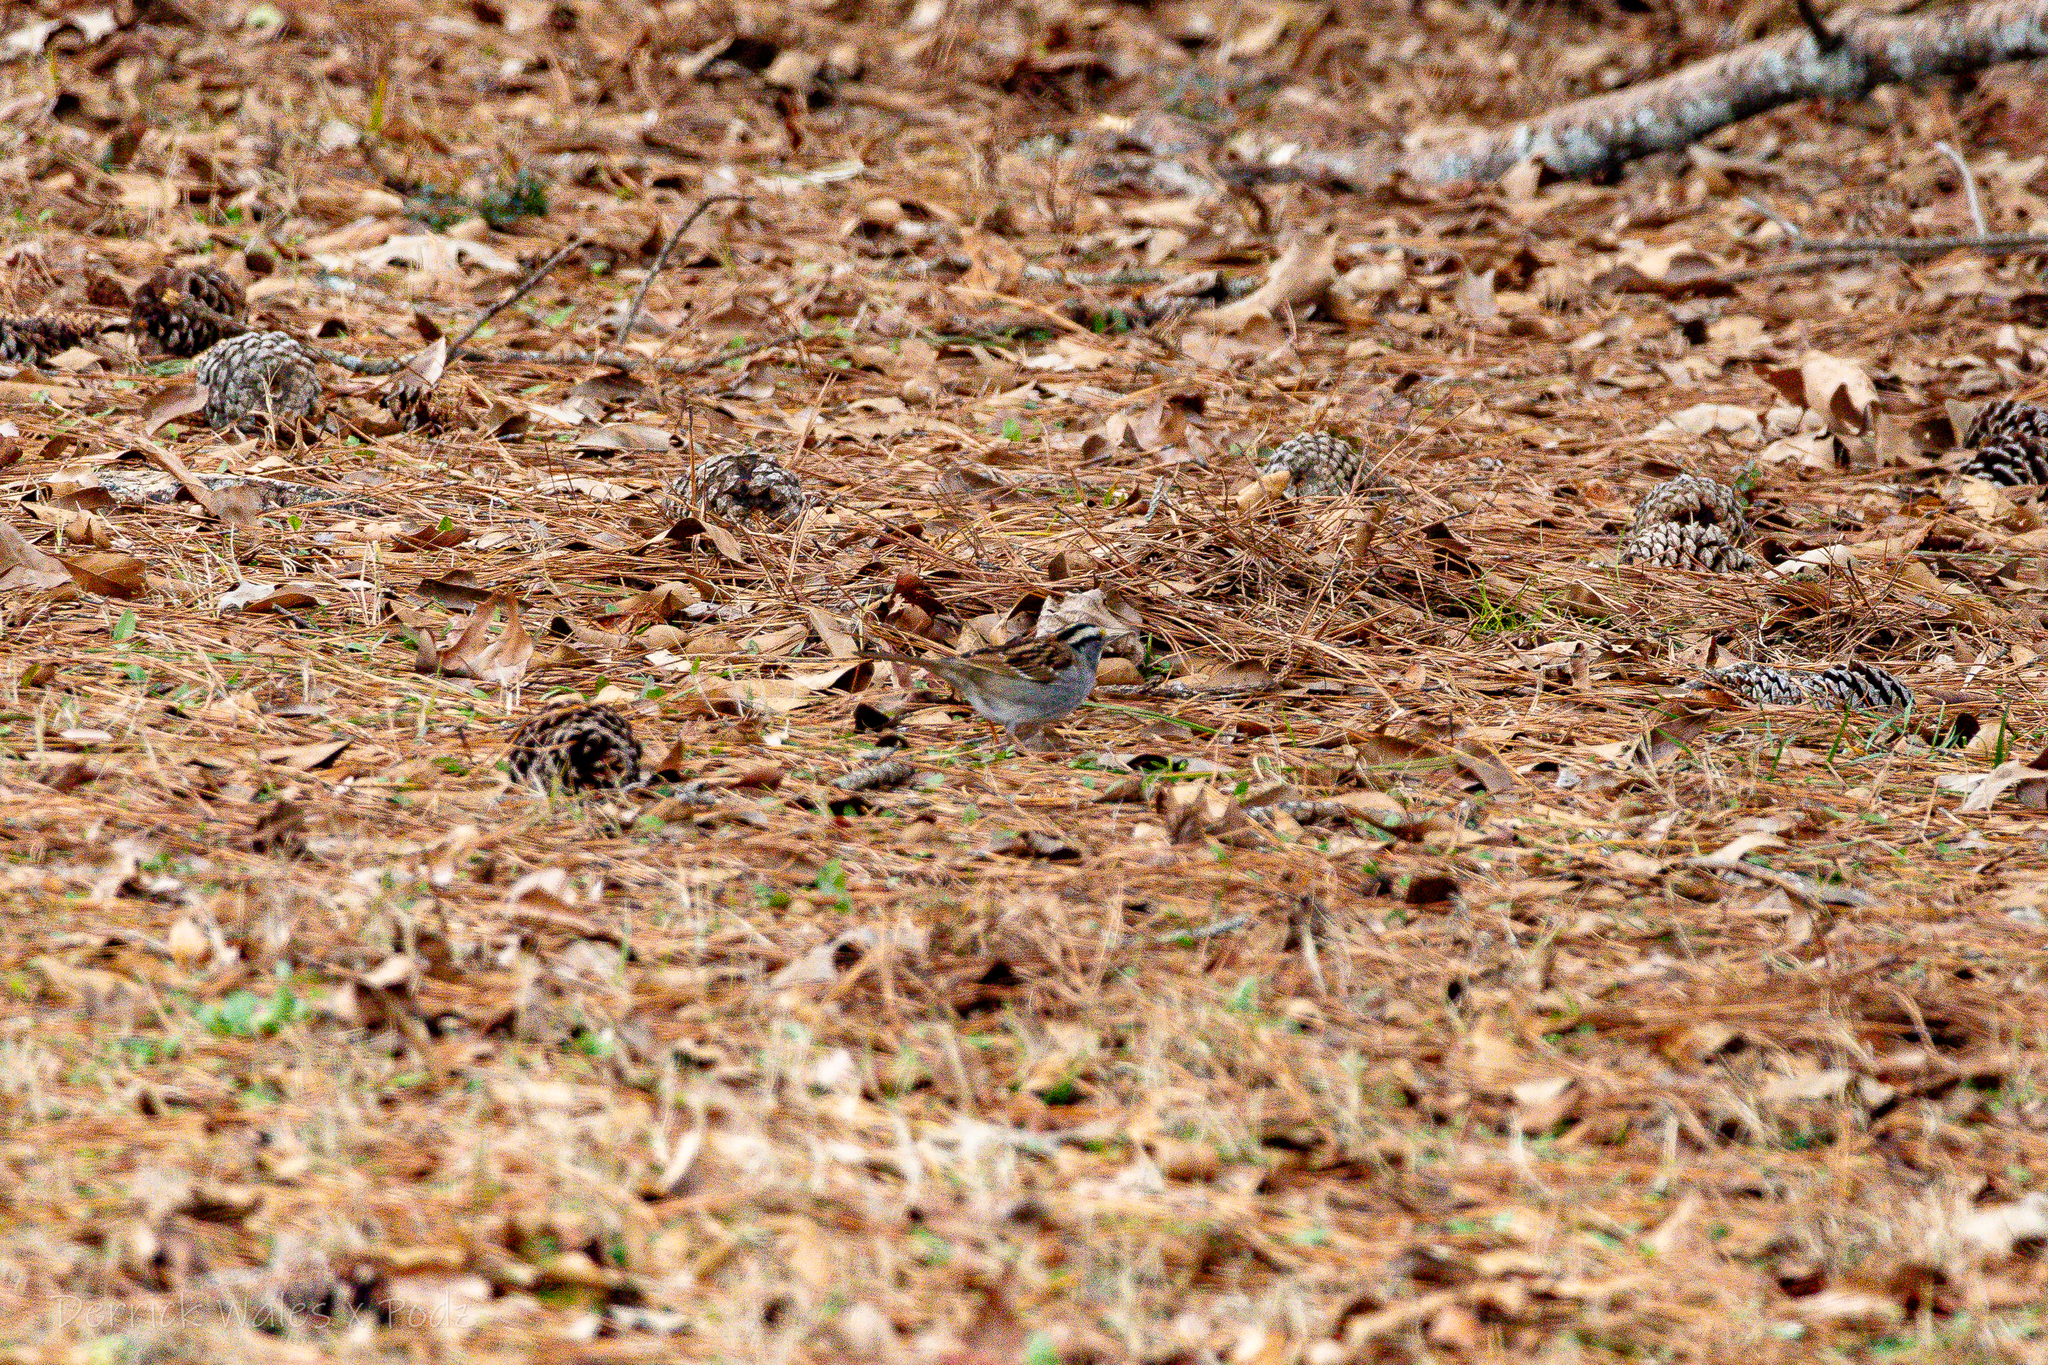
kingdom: Animalia
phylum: Chordata
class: Aves
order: Passeriformes
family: Passerellidae
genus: Zonotrichia
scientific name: Zonotrichia albicollis
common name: White-throated sparrow
